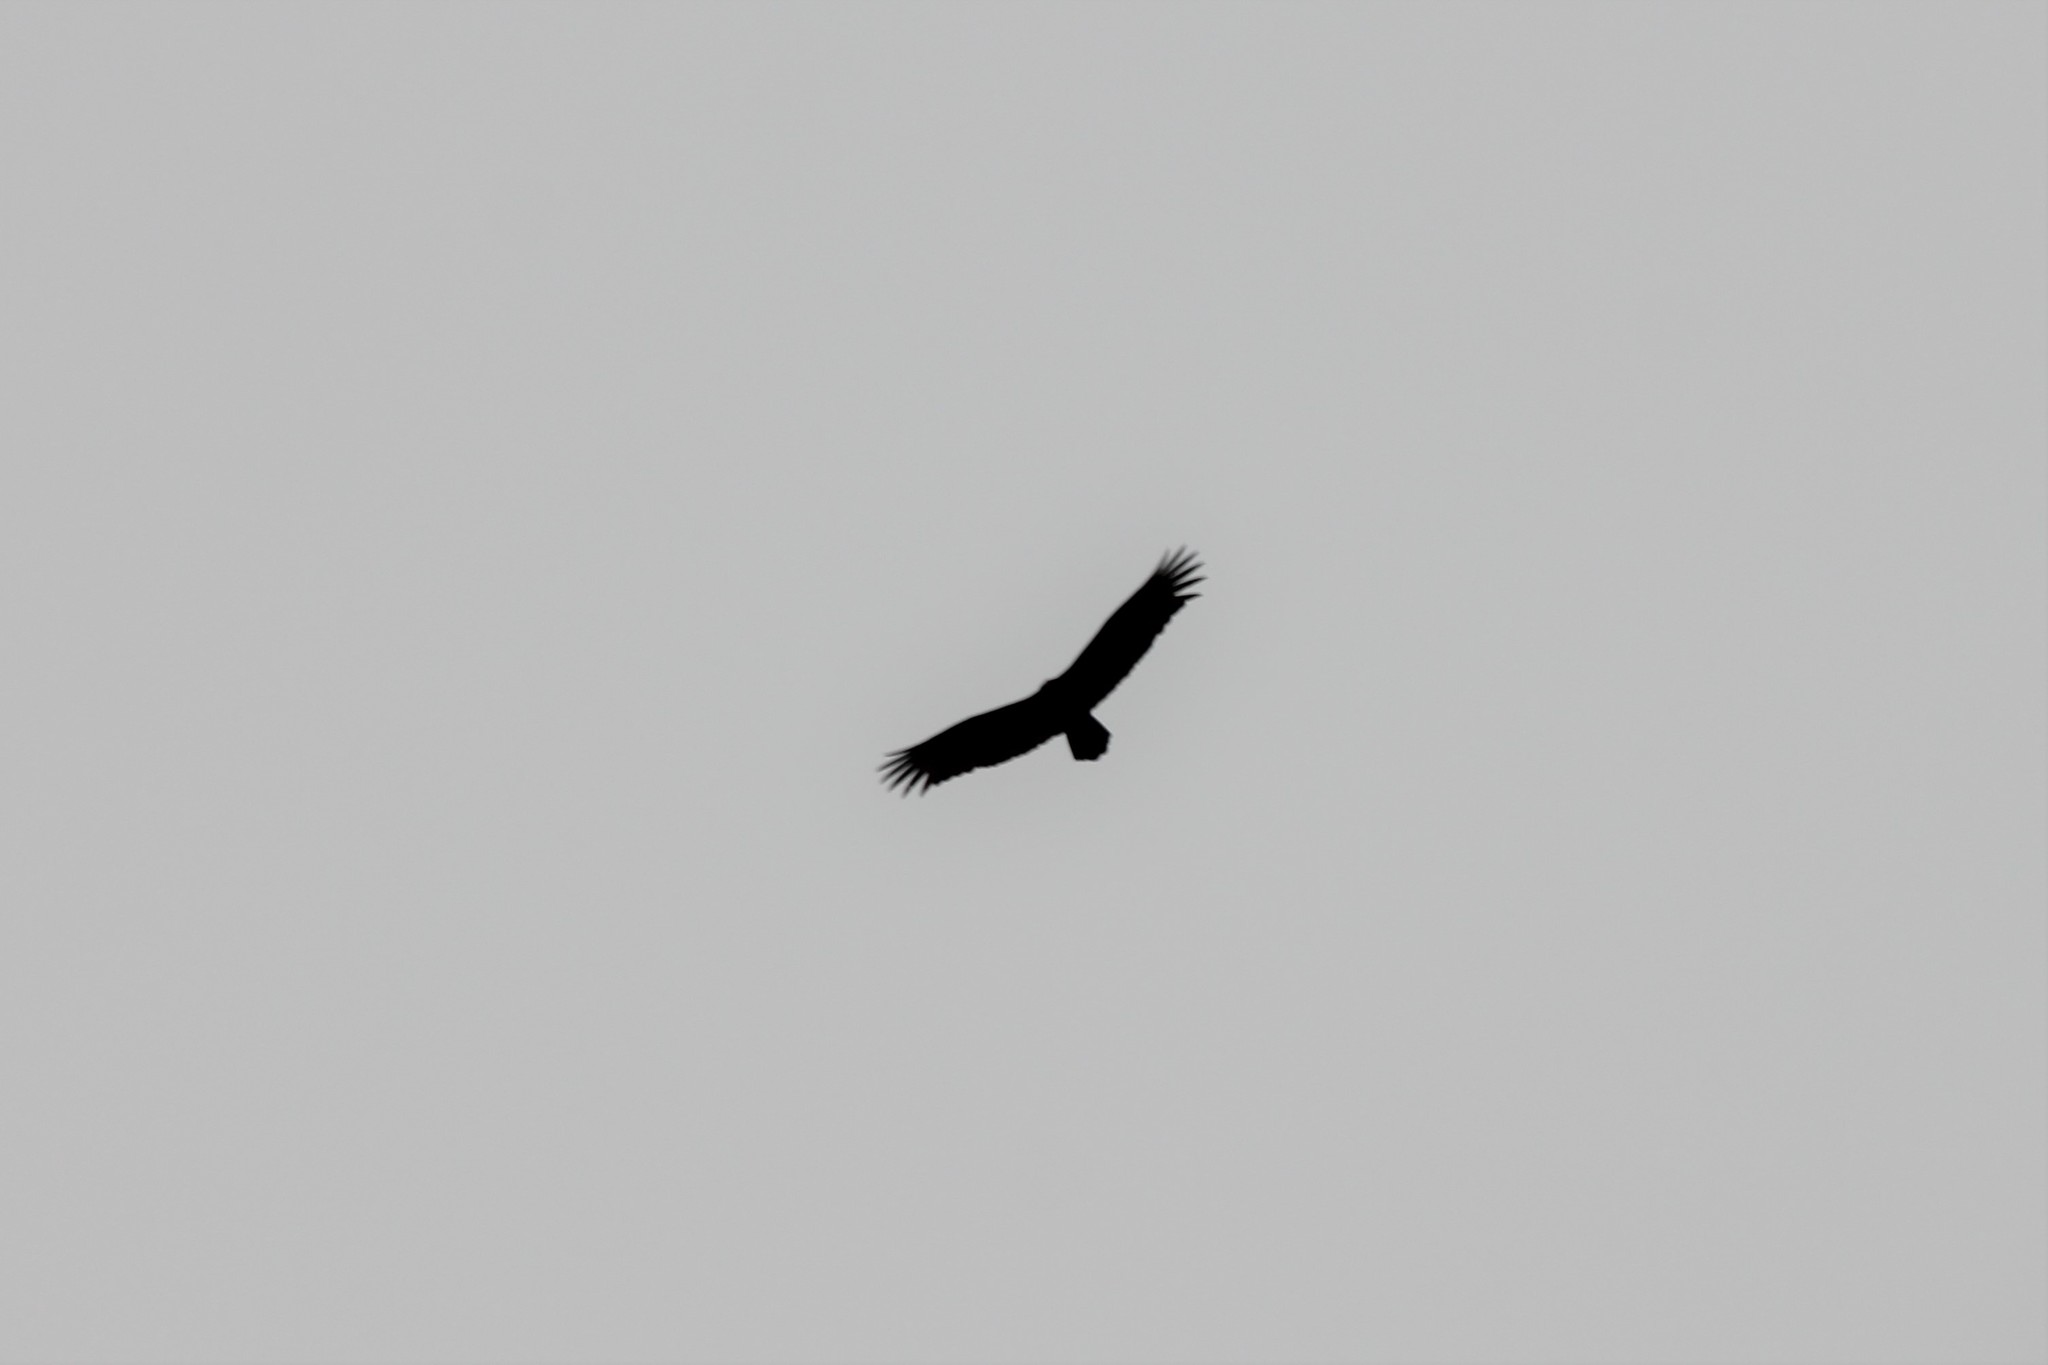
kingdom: Animalia
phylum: Chordata
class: Aves
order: Accipitriformes
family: Cathartidae
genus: Cathartes
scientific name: Cathartes aura
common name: Turkey vulture
